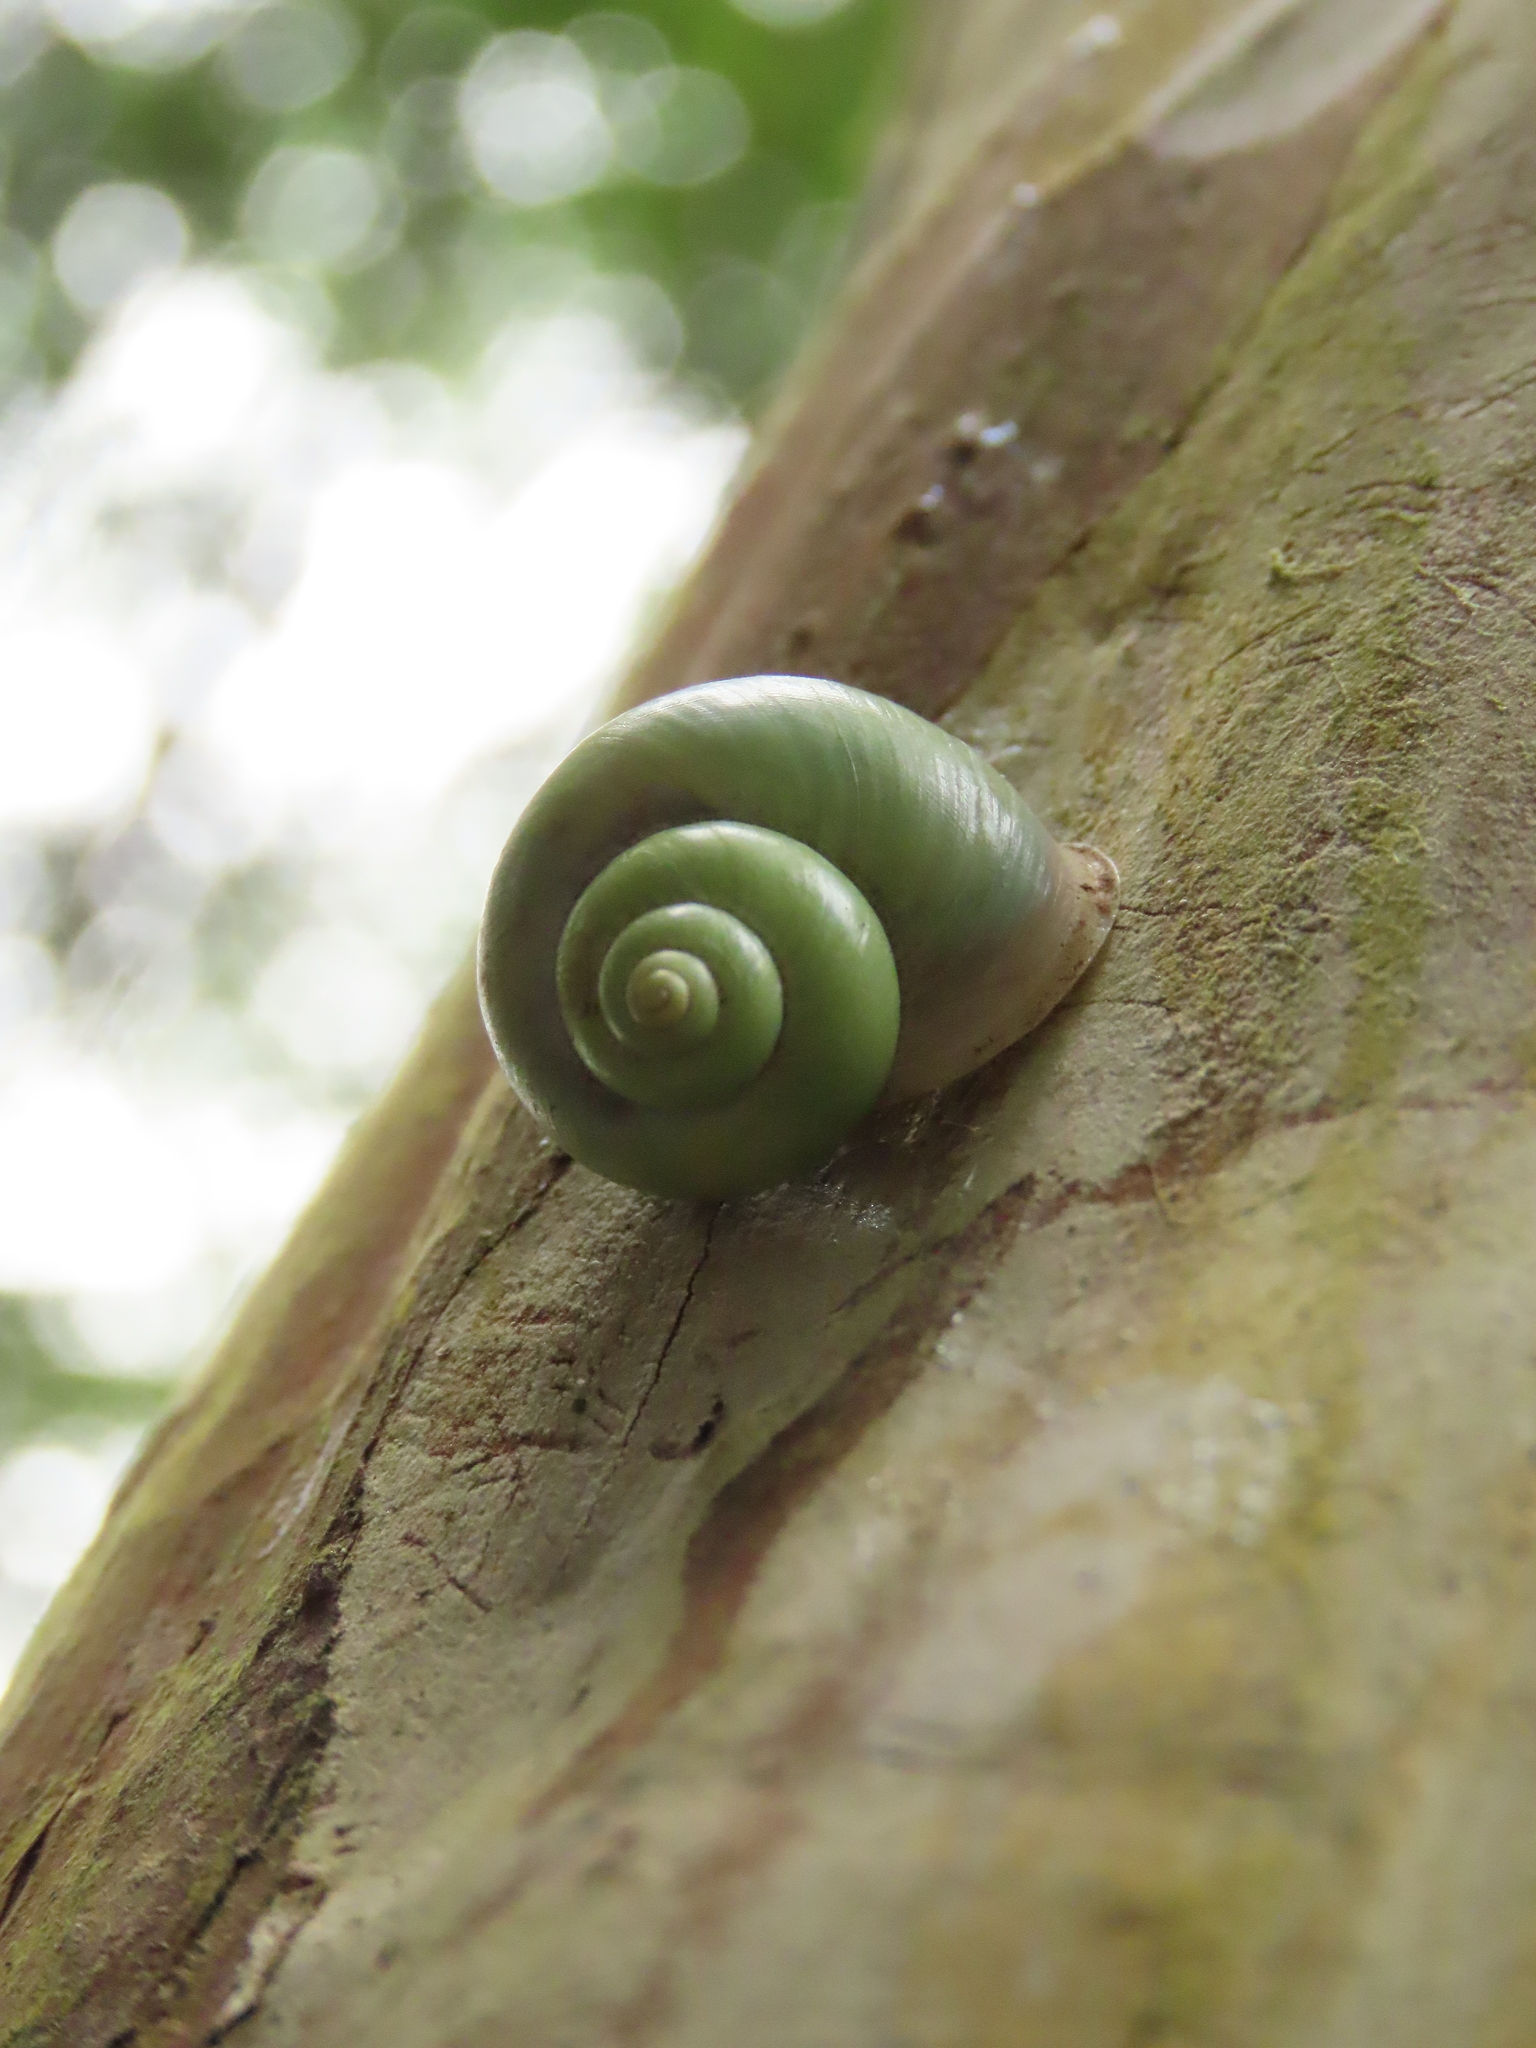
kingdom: Animalia
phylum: Mollusca
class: Gastropoda
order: Architaenioglossa
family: Cyclophoridae
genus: Leptopoma
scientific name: Leptopoma nitidum
